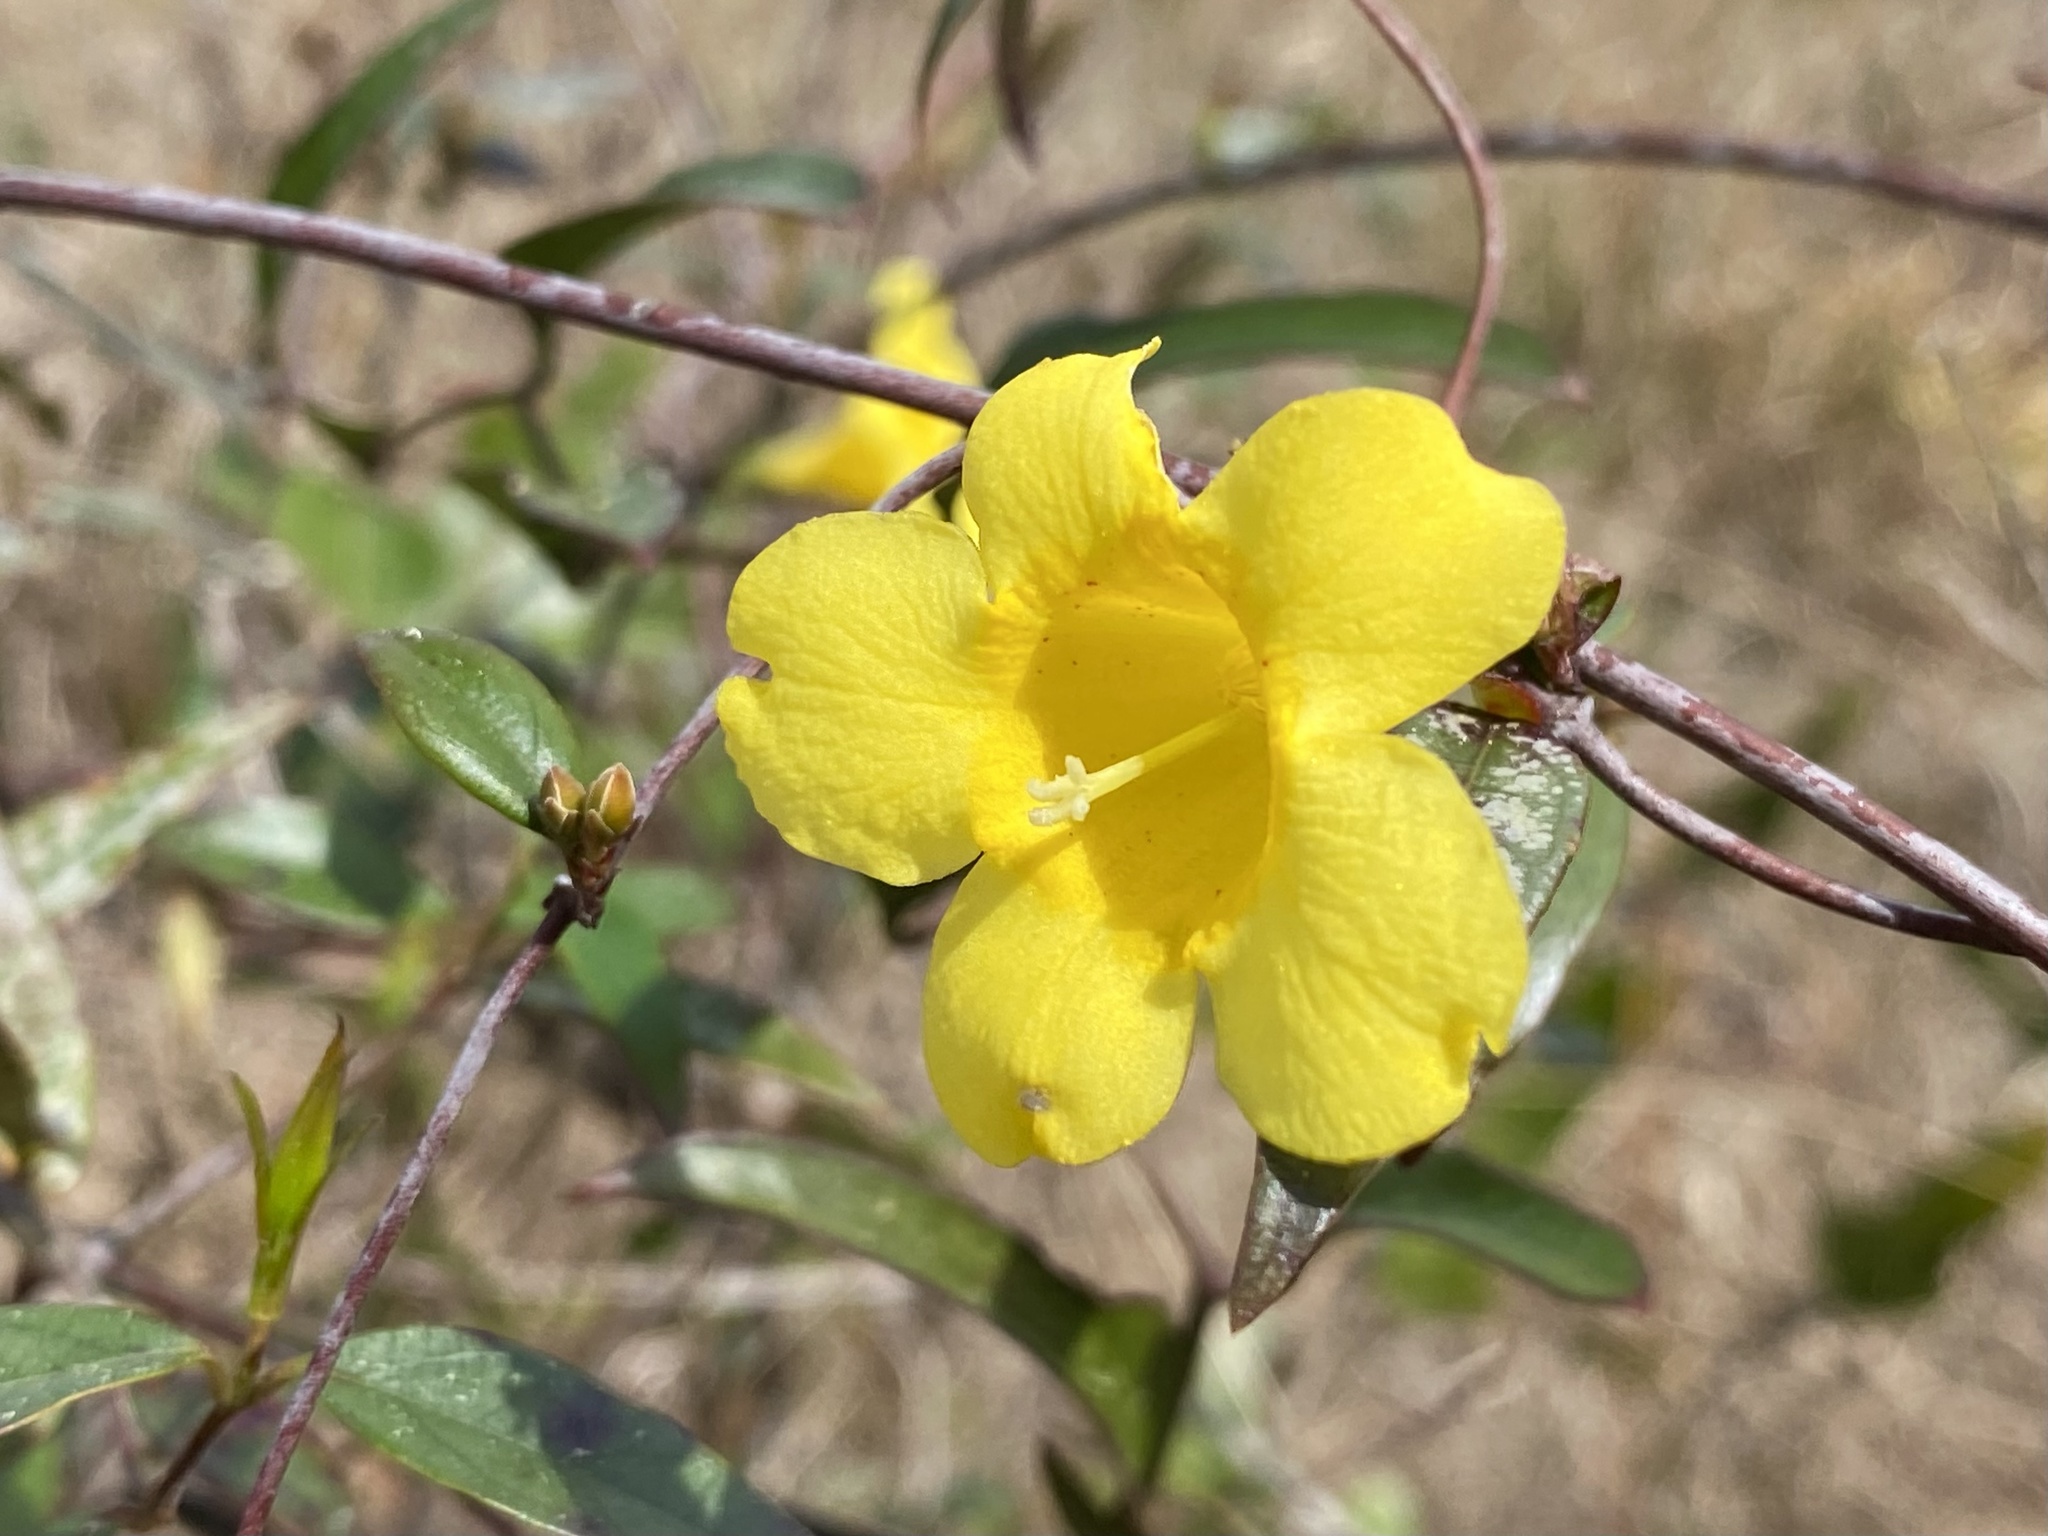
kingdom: Plantae
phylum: Tracheophyta
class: Magnoliopsida
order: Gentianales
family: Gelsemiaceae
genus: Gelsemium
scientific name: Gelsemium sempervirens
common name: Carolina-jasmine
